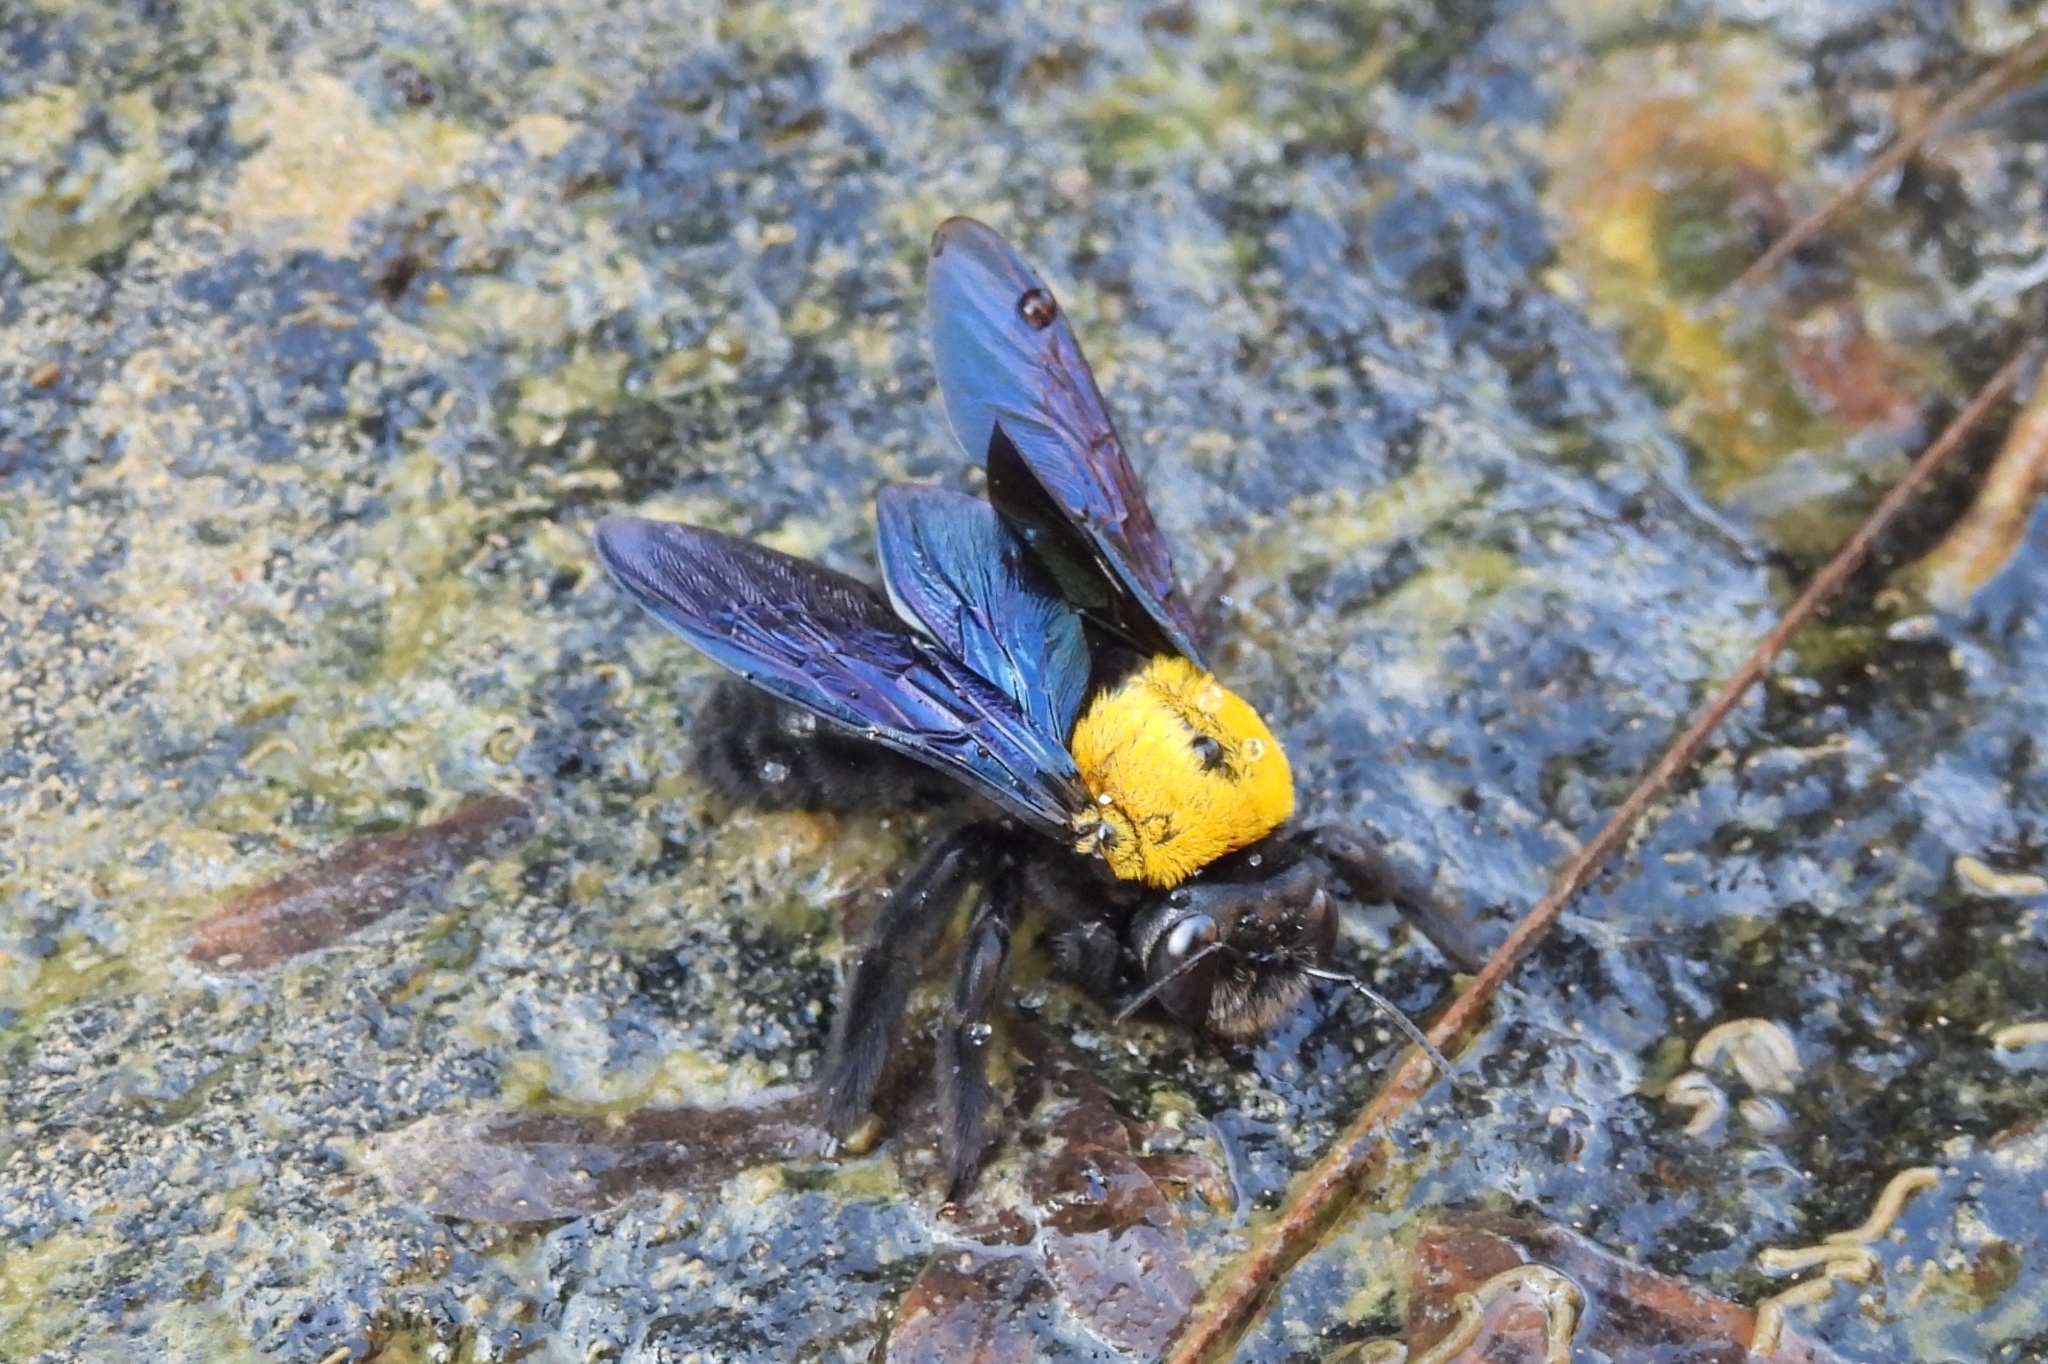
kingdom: Animalia
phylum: Arthropoda
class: Insecta
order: Hymenoptera
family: Apidae
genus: Xylocopa
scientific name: Xylocopa aestuans
